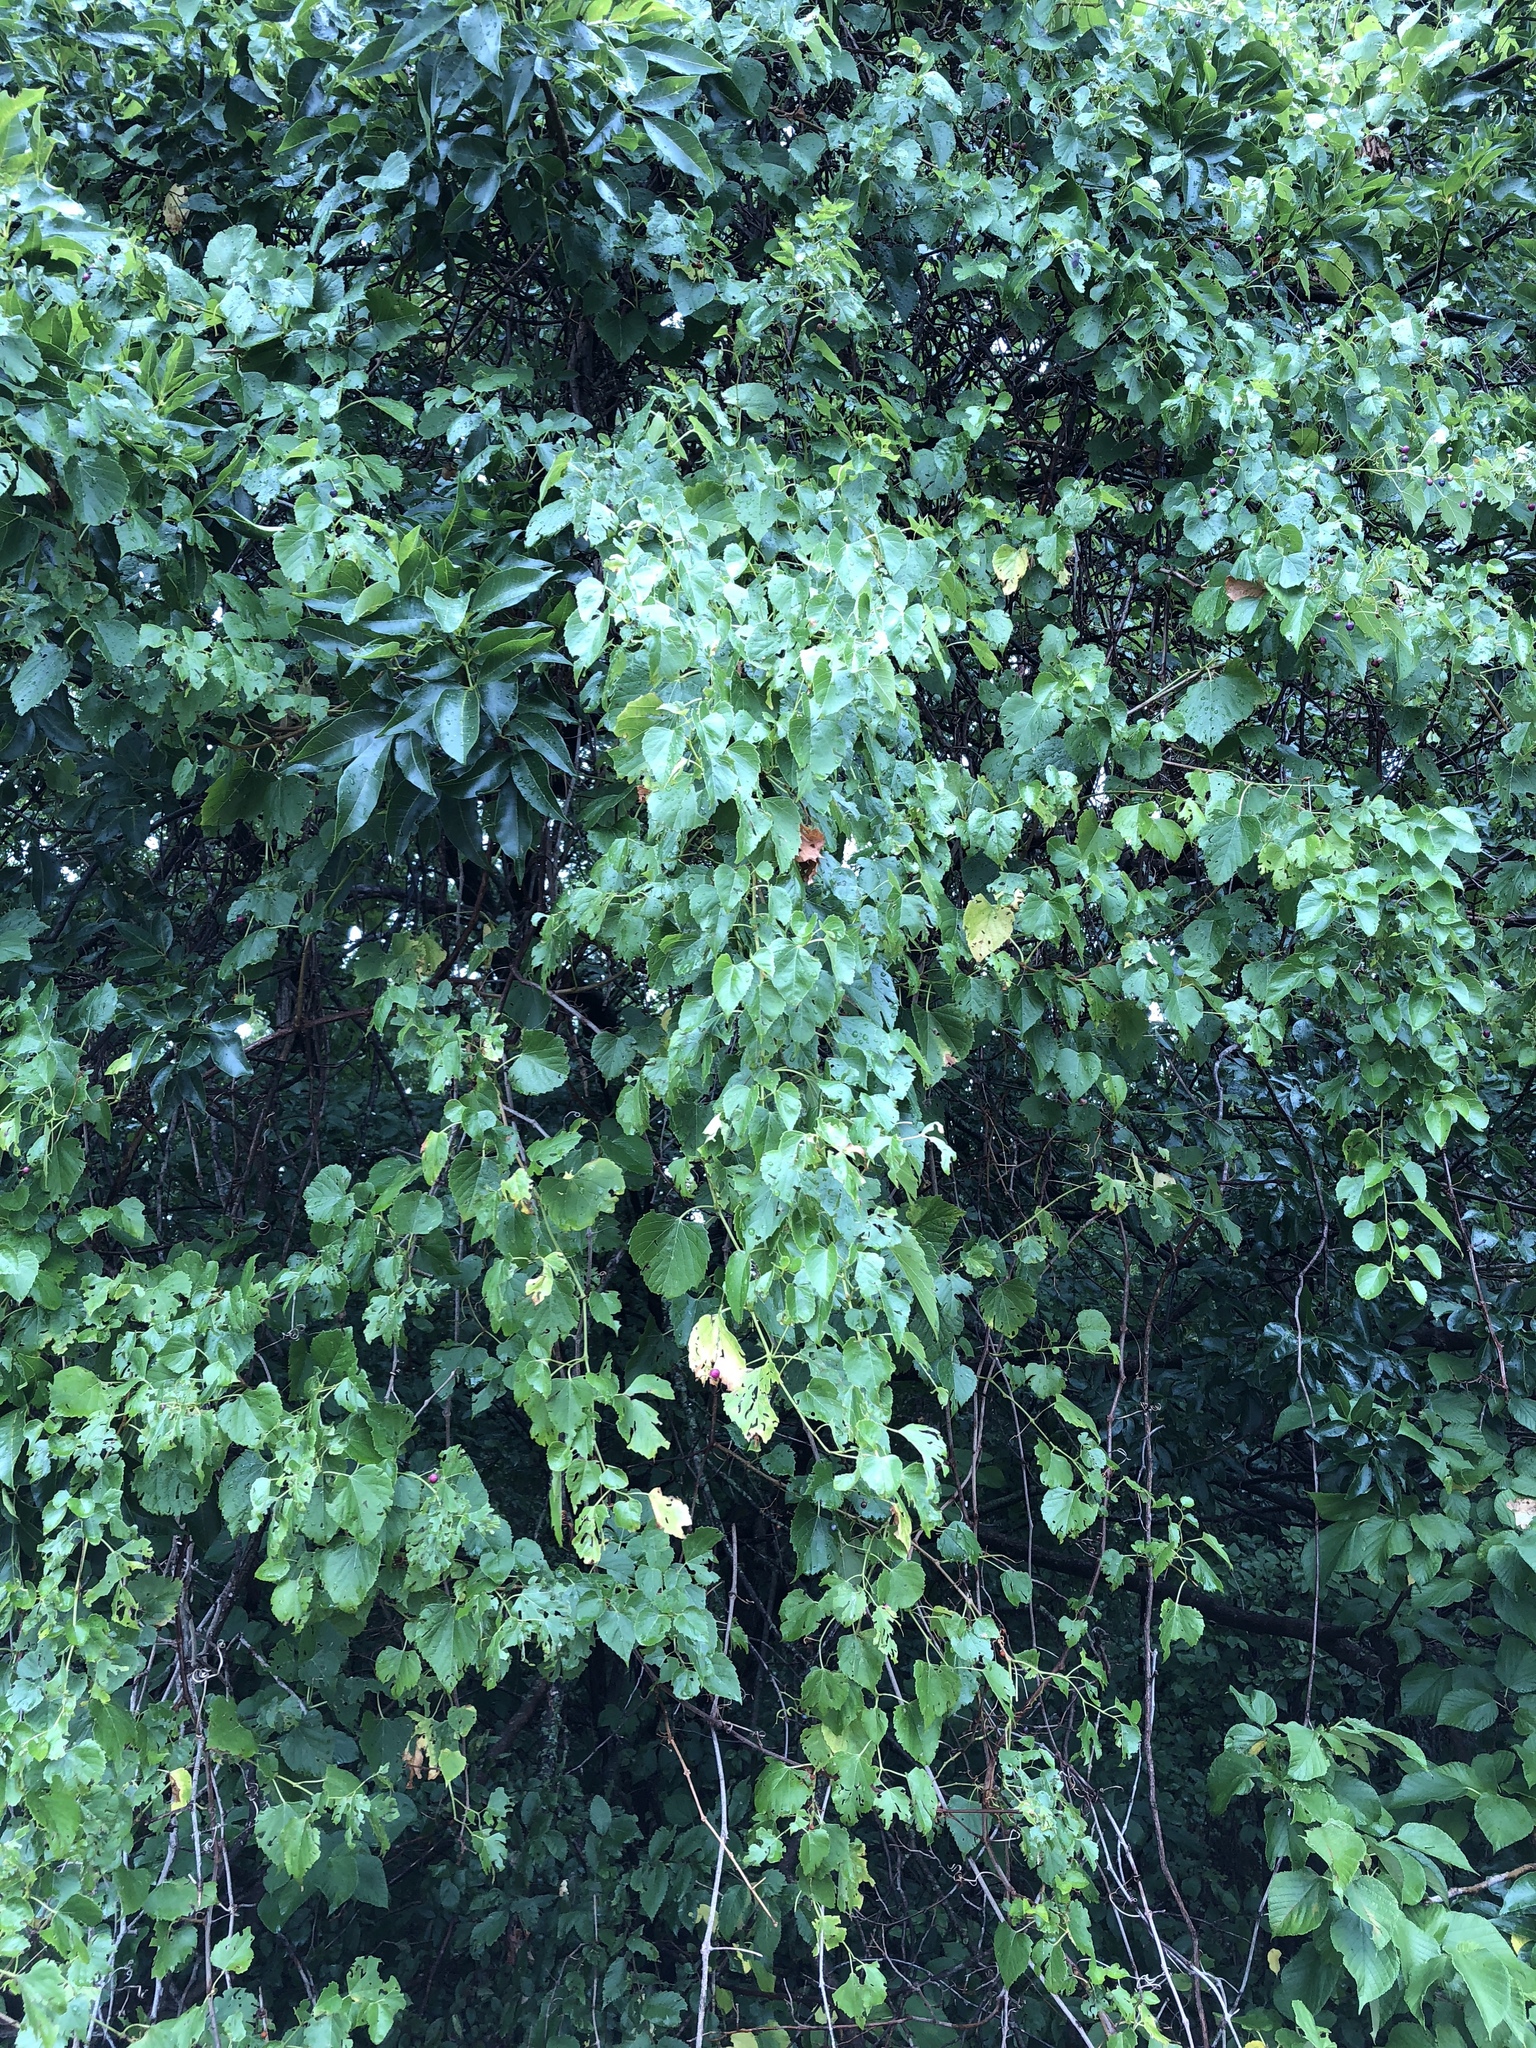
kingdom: Plantae
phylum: Tracheophyta
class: Magnoliopsida
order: Vitales
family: Vitaceae
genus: Ampelopsis
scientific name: Ampelopsis cordata
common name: Heart-leaf ampelopsis
